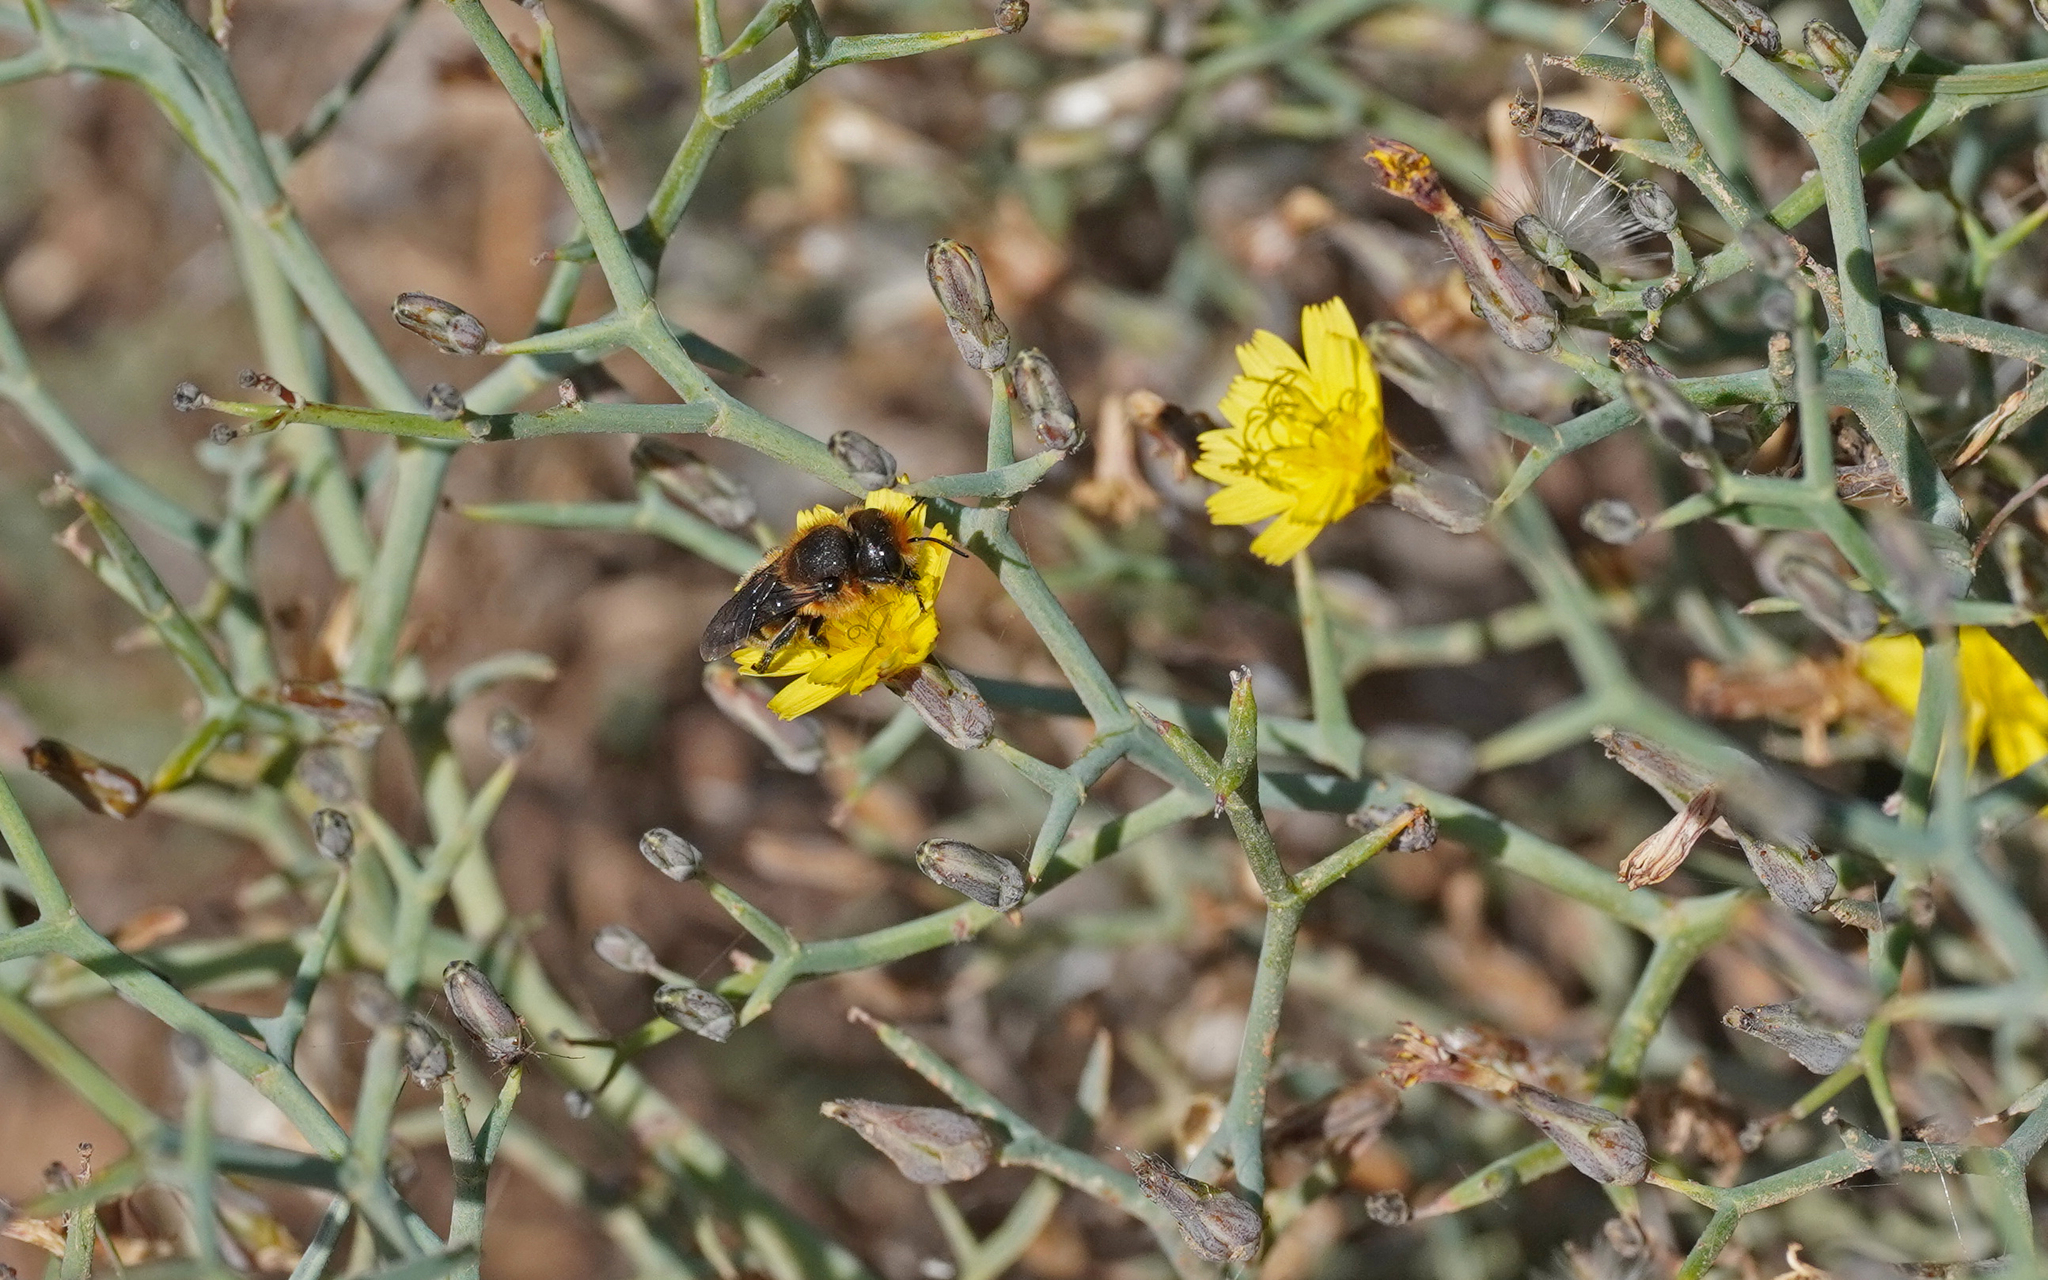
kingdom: Animalia
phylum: Arthropoda
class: Insecta
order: Hymenoptera
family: Megachilidae
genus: Osmia
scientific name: Osmia latreillei
